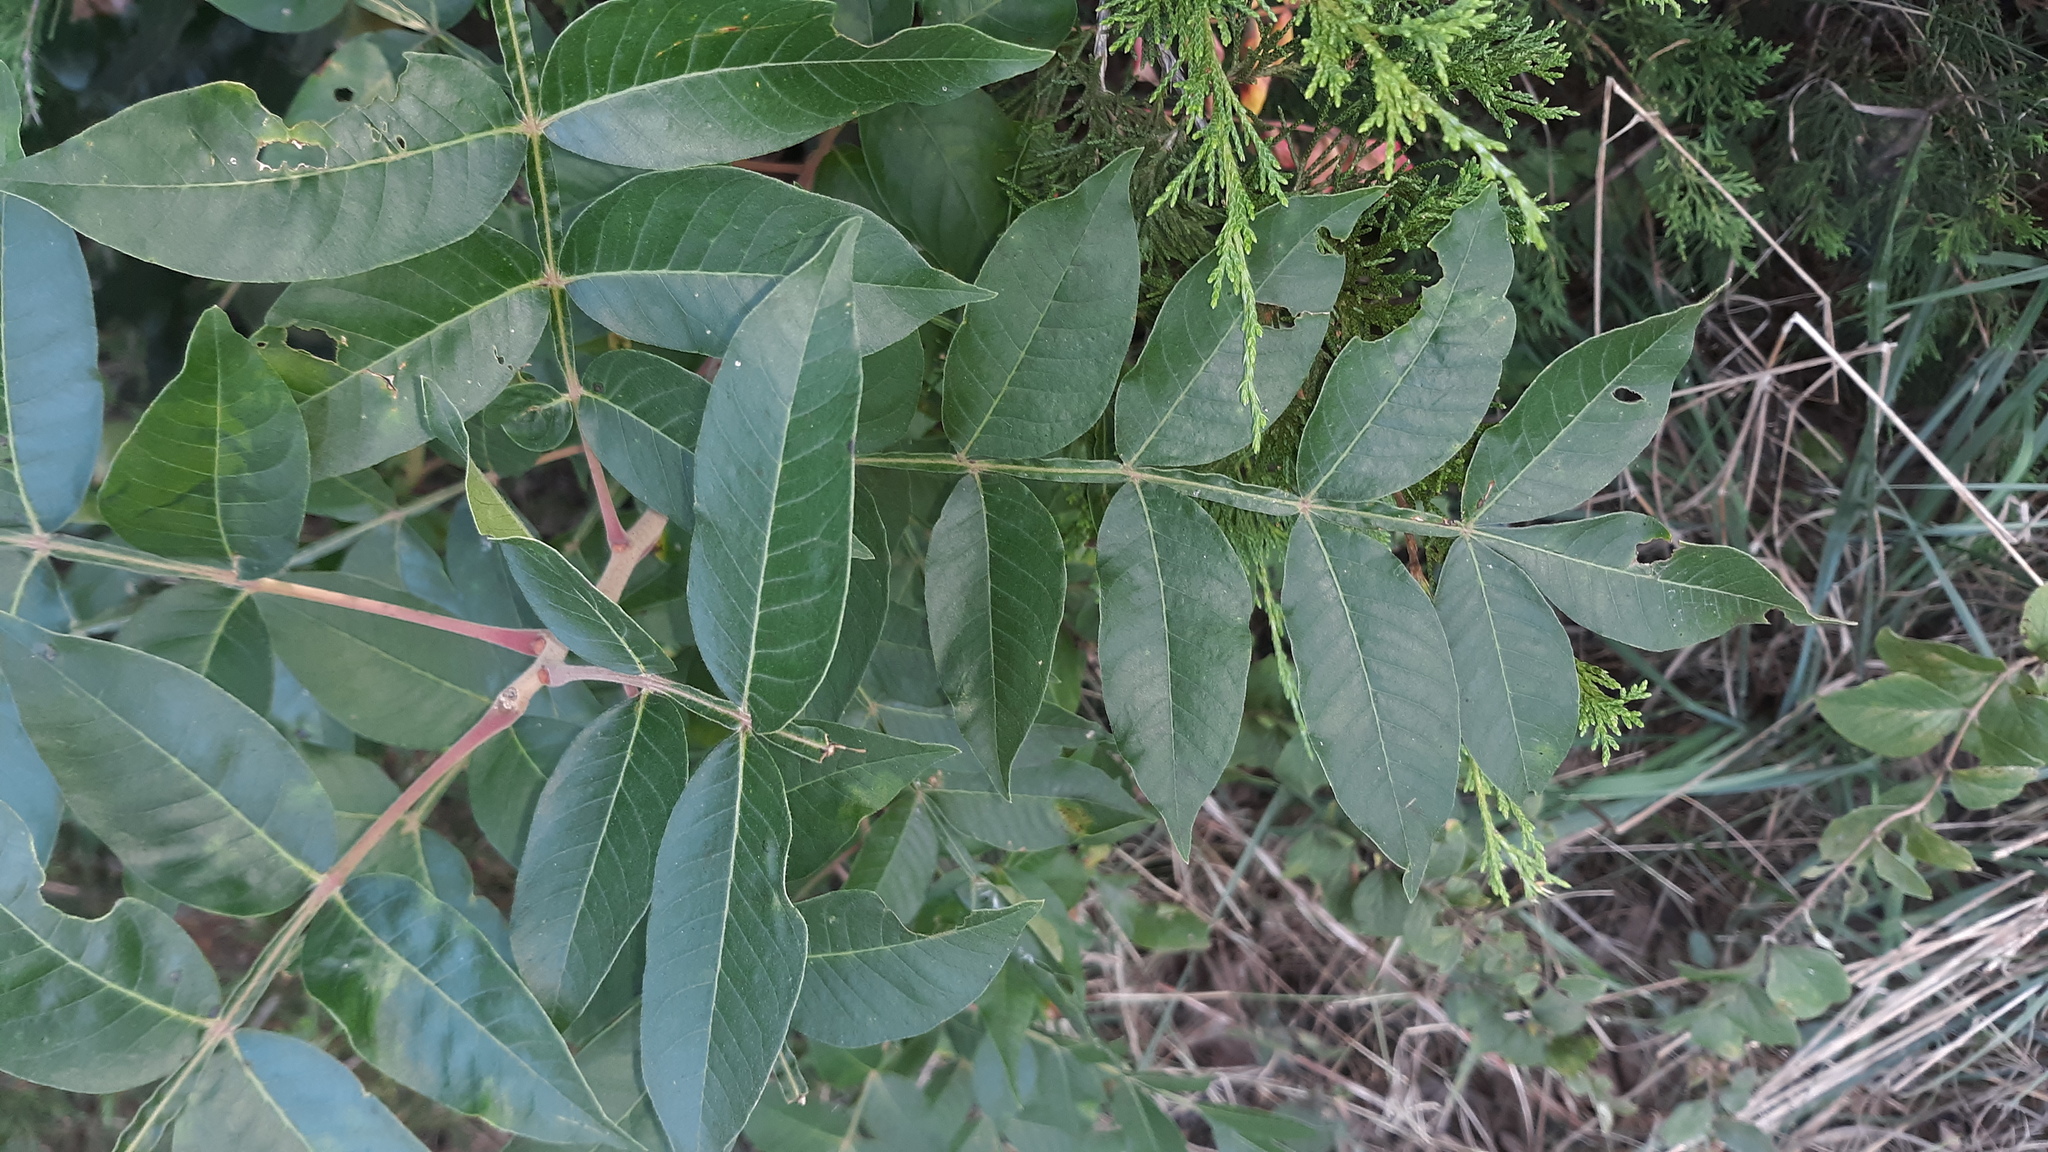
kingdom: Plantae
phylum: Tracheophyta
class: Magnoliopsida
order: Sapindales
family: Anacardiaceae
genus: Rhus
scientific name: Rhus copallina
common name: Shining sumac
